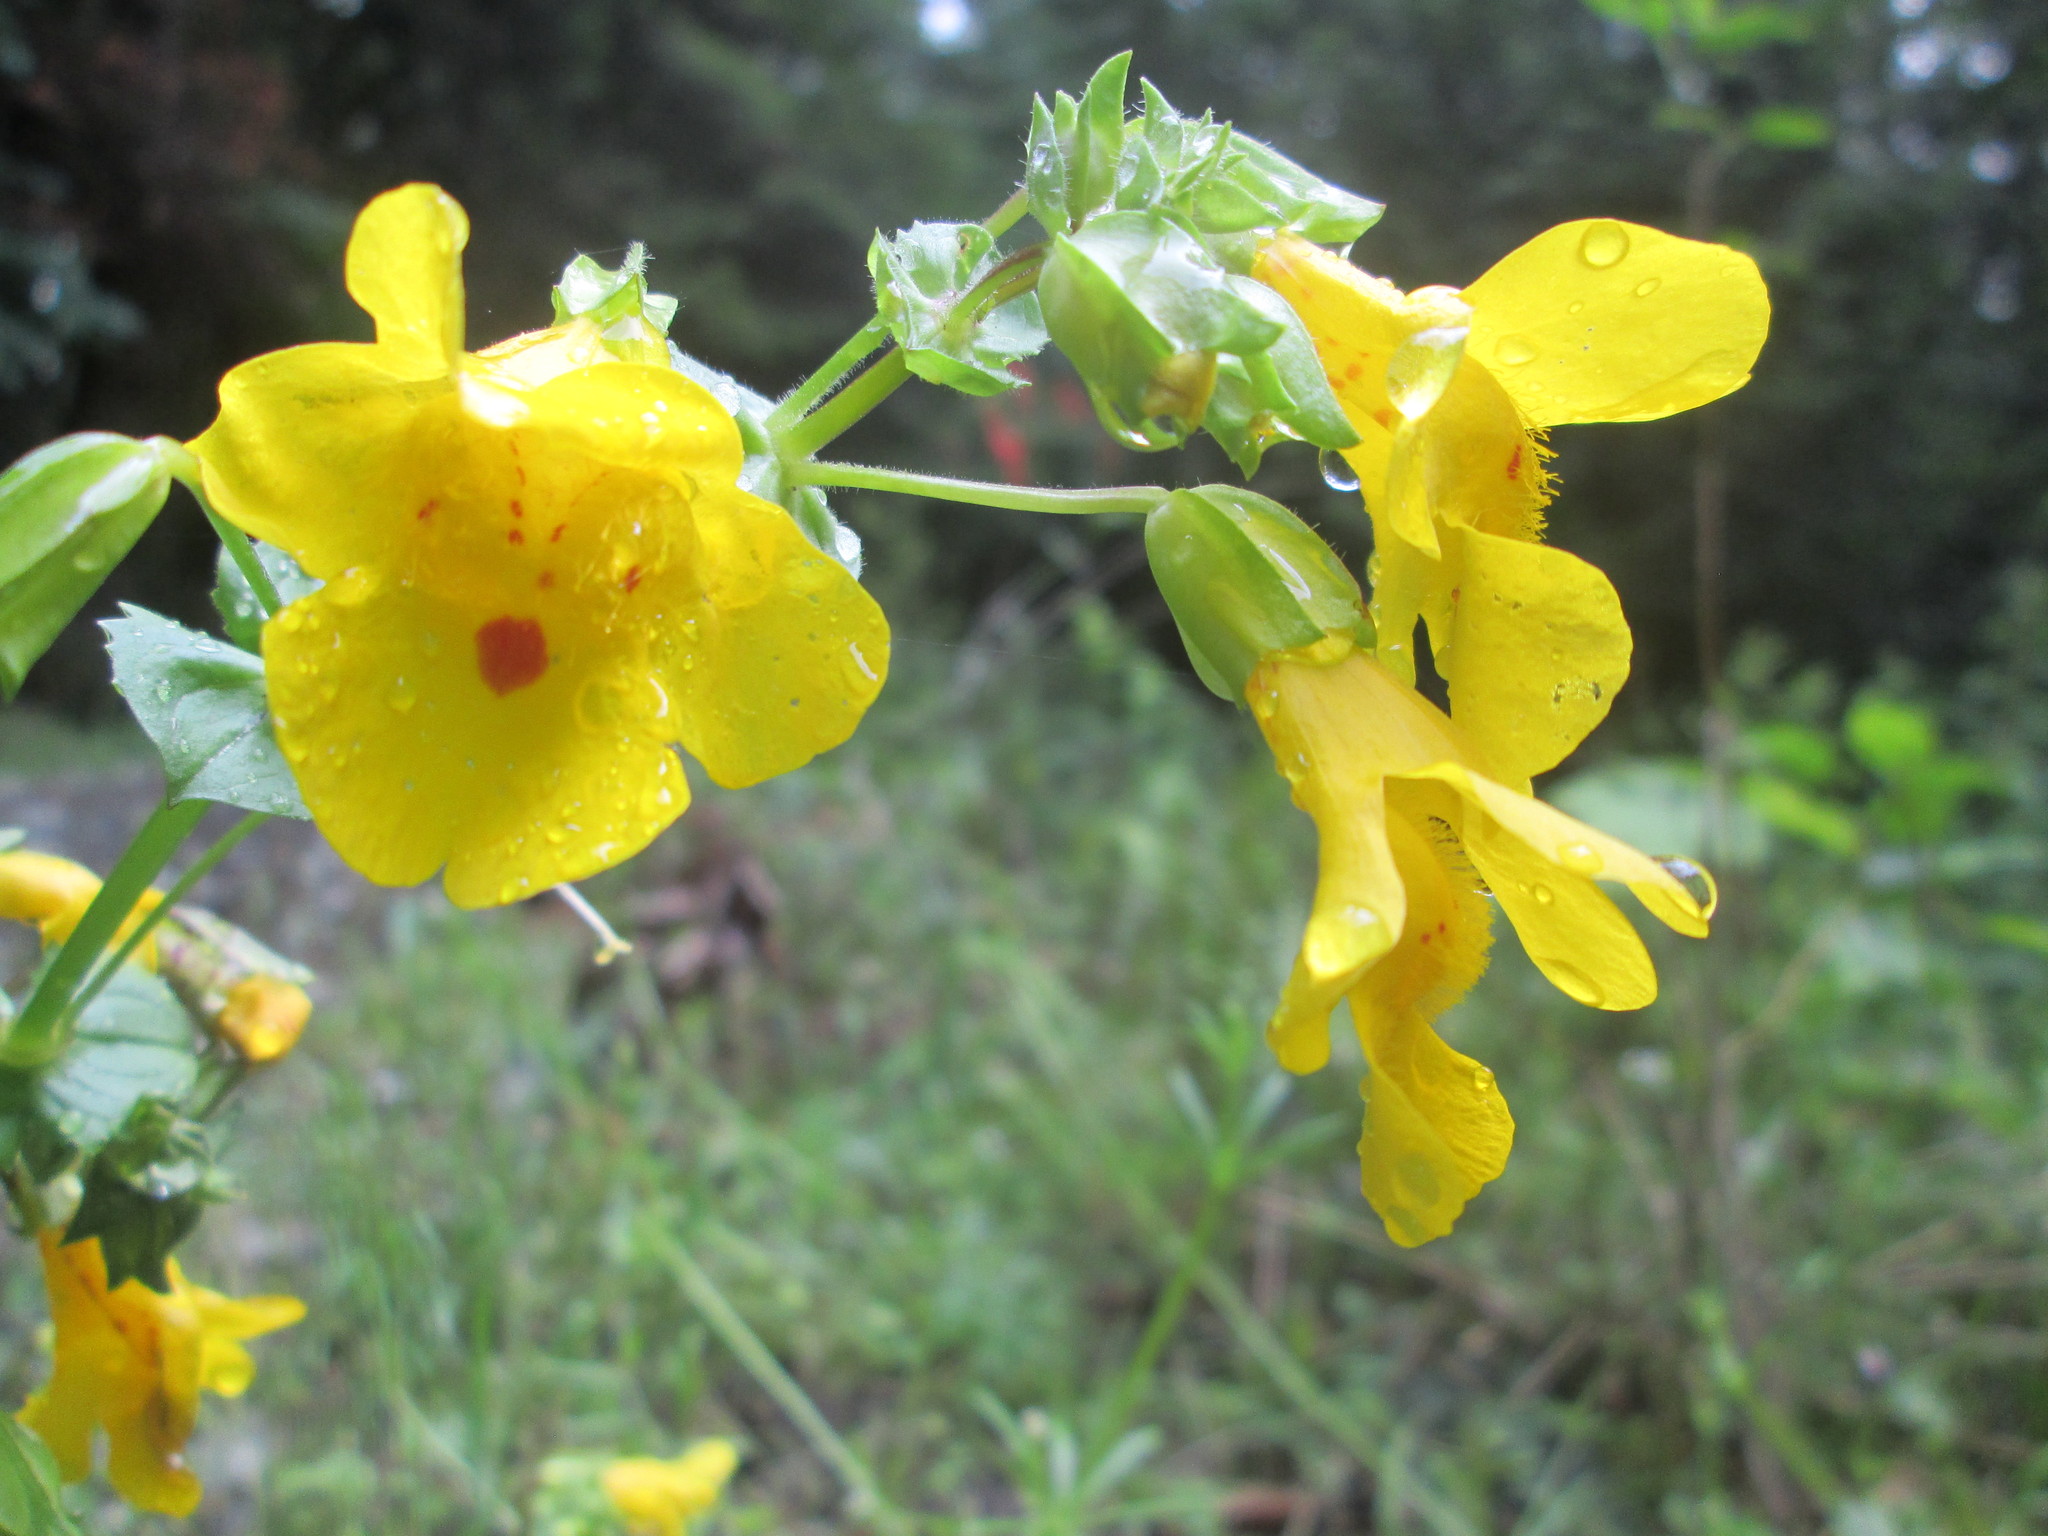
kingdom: Plantae
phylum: Tracheophyta
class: Magnoliopsida
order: Lamiales
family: Phrymaceae
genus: Erythranthe
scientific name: Erythranthe guttata
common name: Monkeyflower
